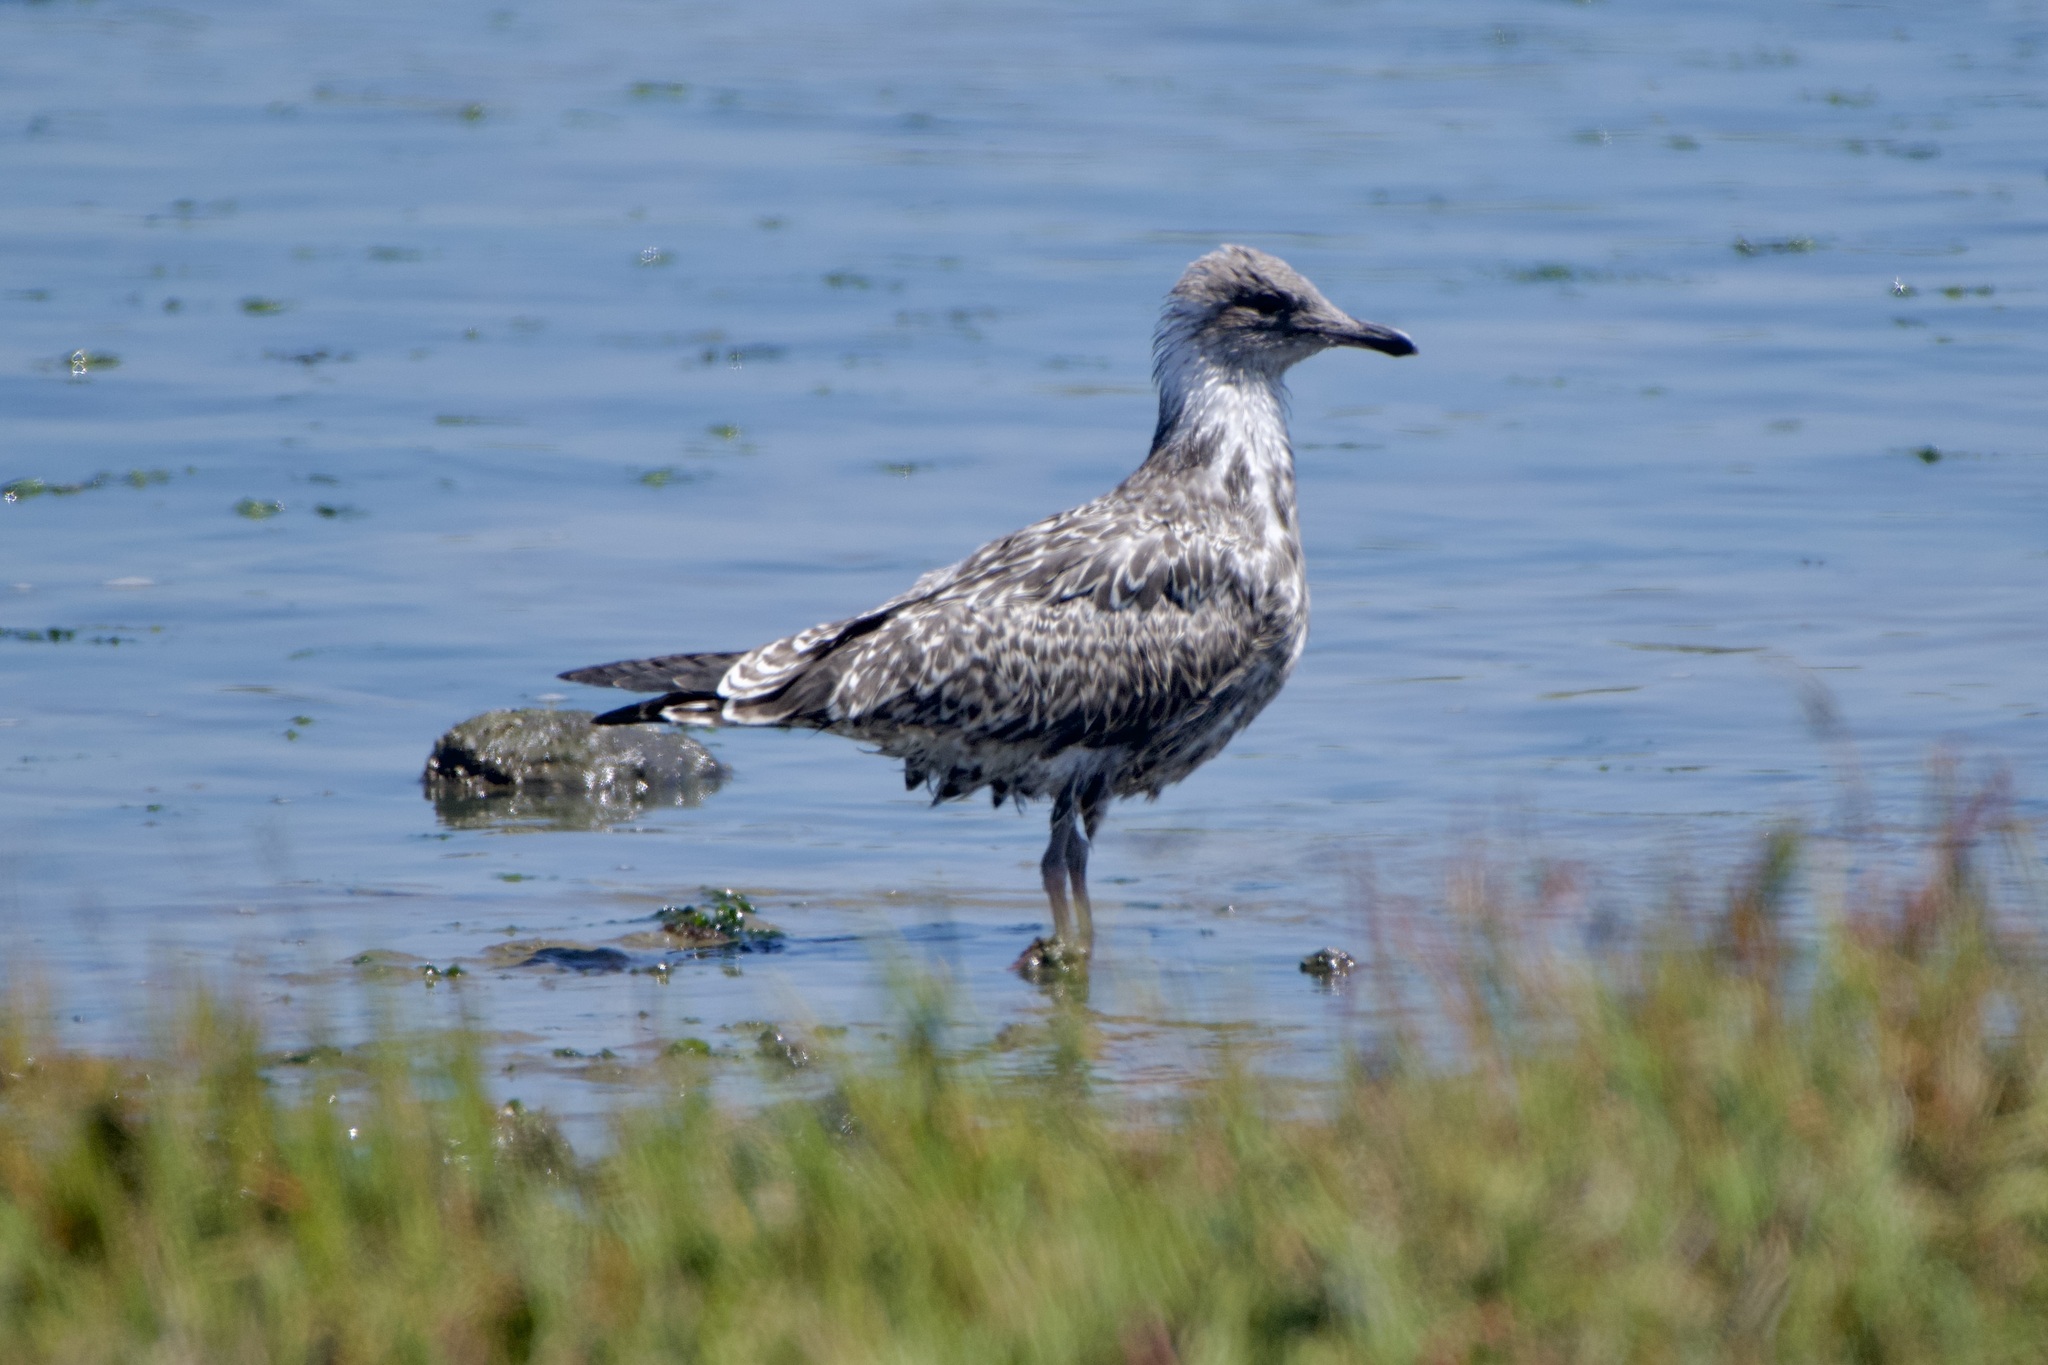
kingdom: Animalia
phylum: Chordata
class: Aves
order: Charadriiformes
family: Laridae
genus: Larus
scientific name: Larus californicus
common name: California gull
